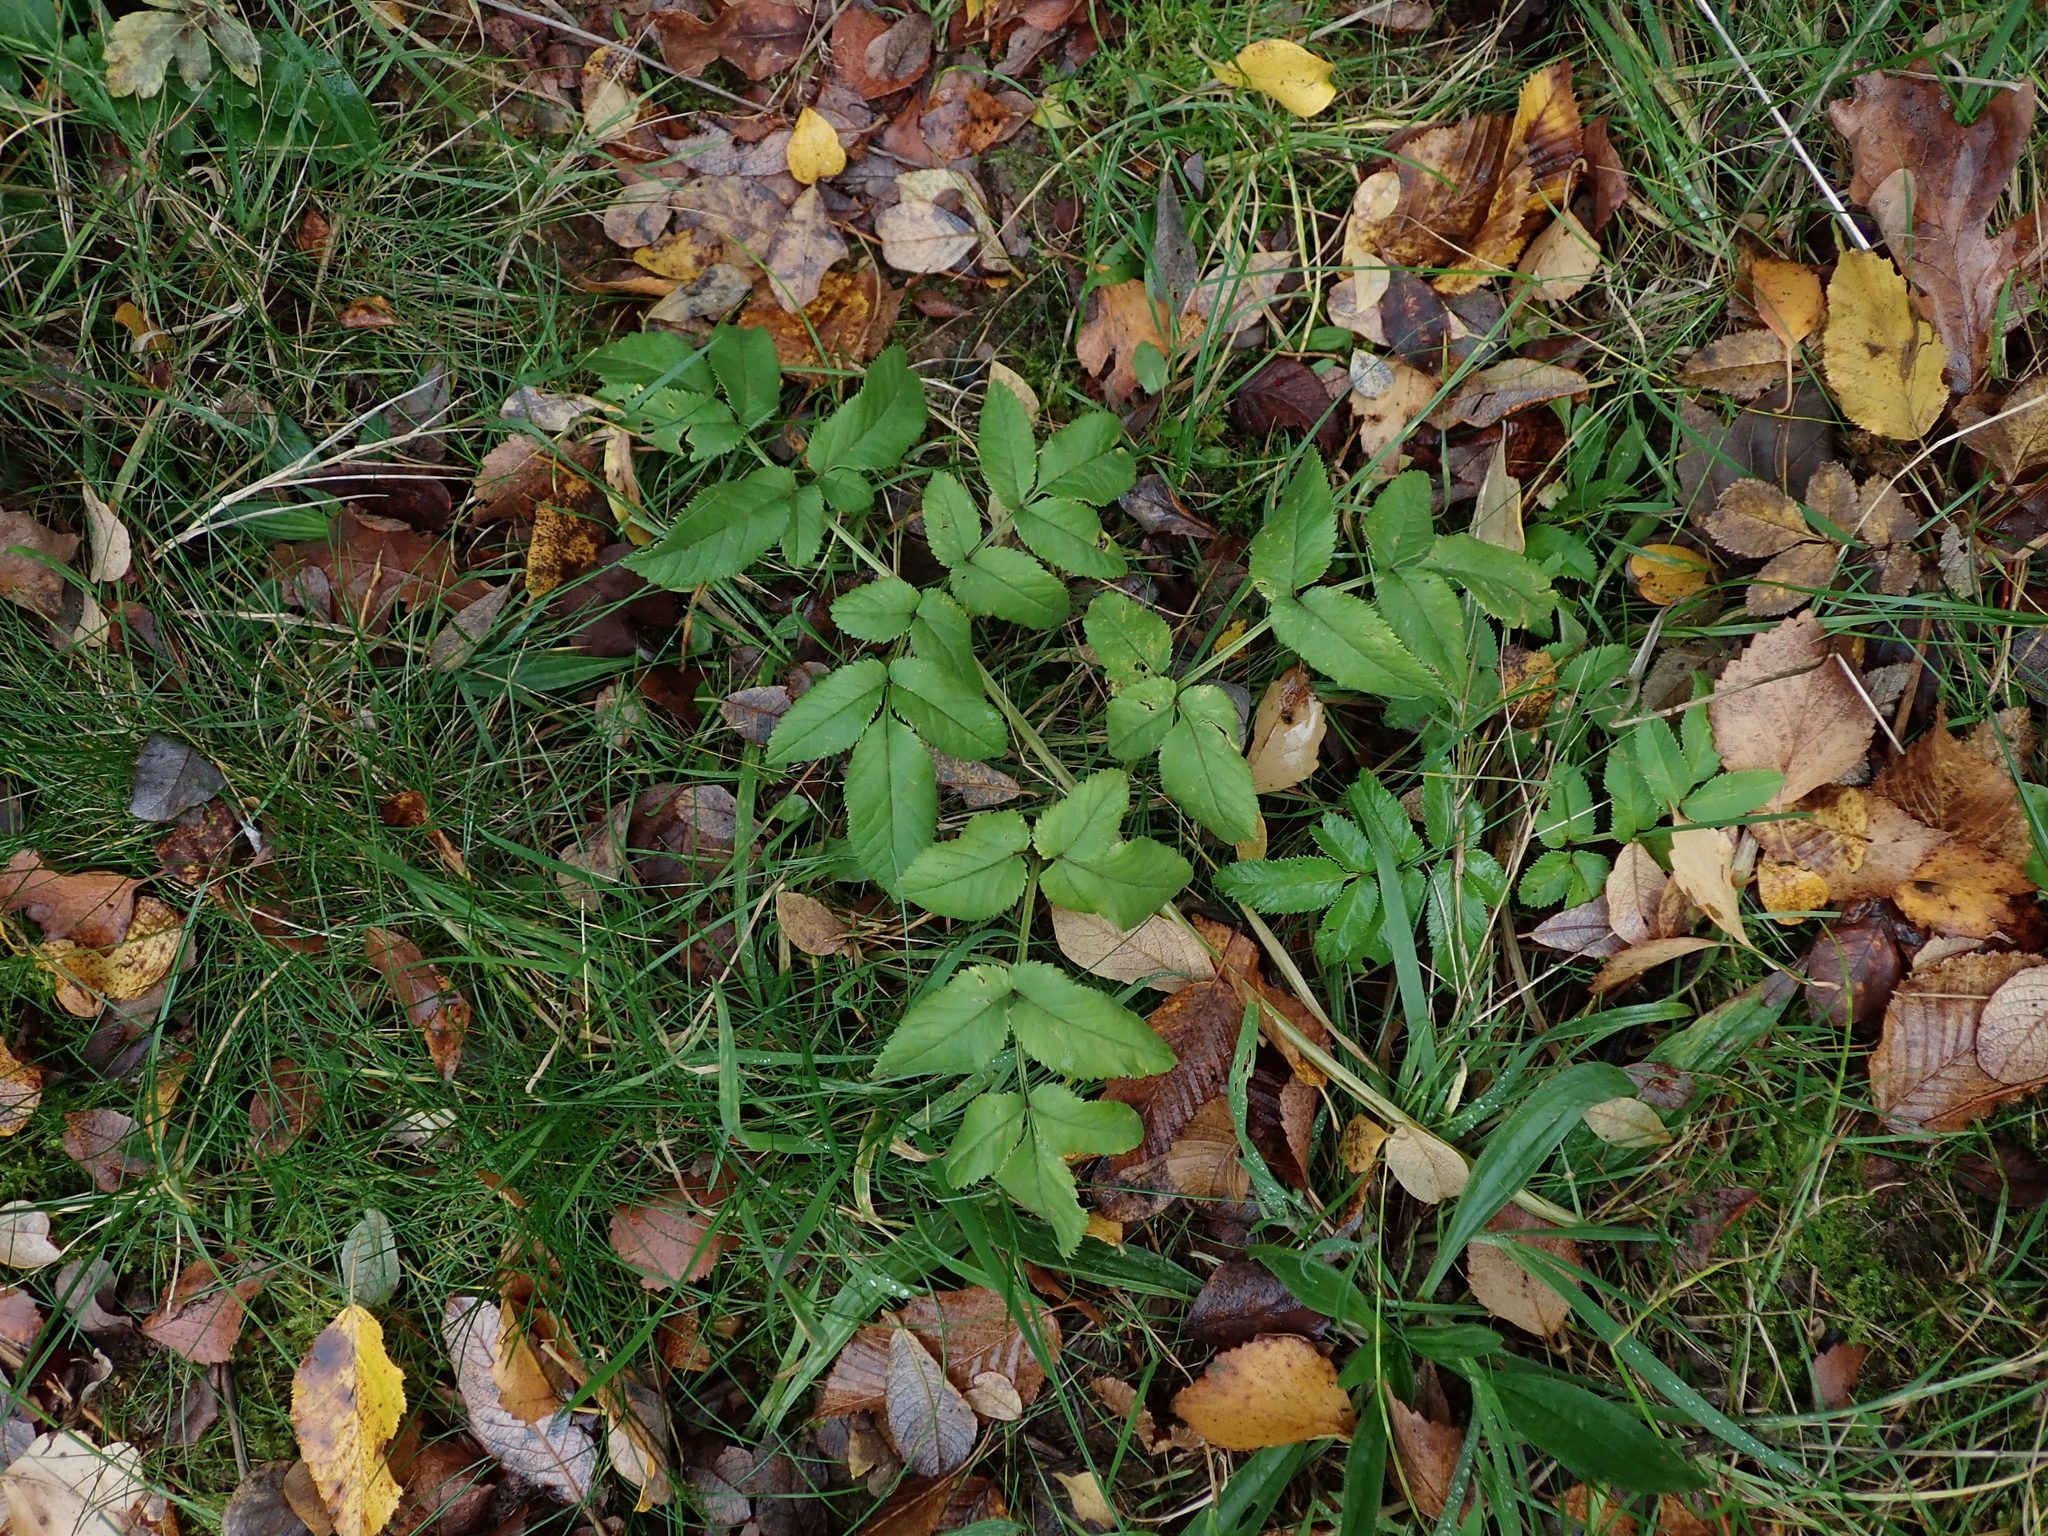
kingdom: Plantae
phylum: Tracheophyta
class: Magnoliopsida
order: Apiales
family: Apiaceae
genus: Angelica
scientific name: Angelica sylvestris
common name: Wild angelica
